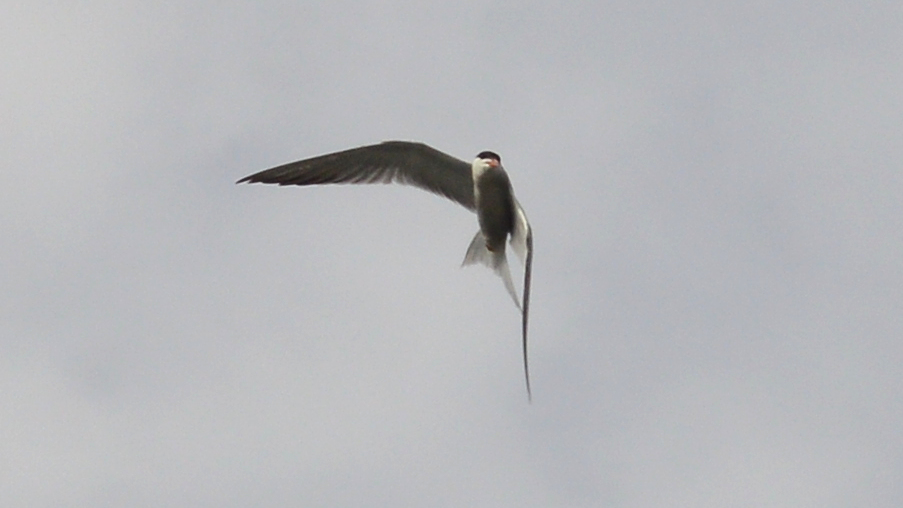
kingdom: Animalia
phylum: Chordata
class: Aves
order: Charadriiformes
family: Laridae
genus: Sterna
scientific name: Sterna hirundo
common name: Common tern
